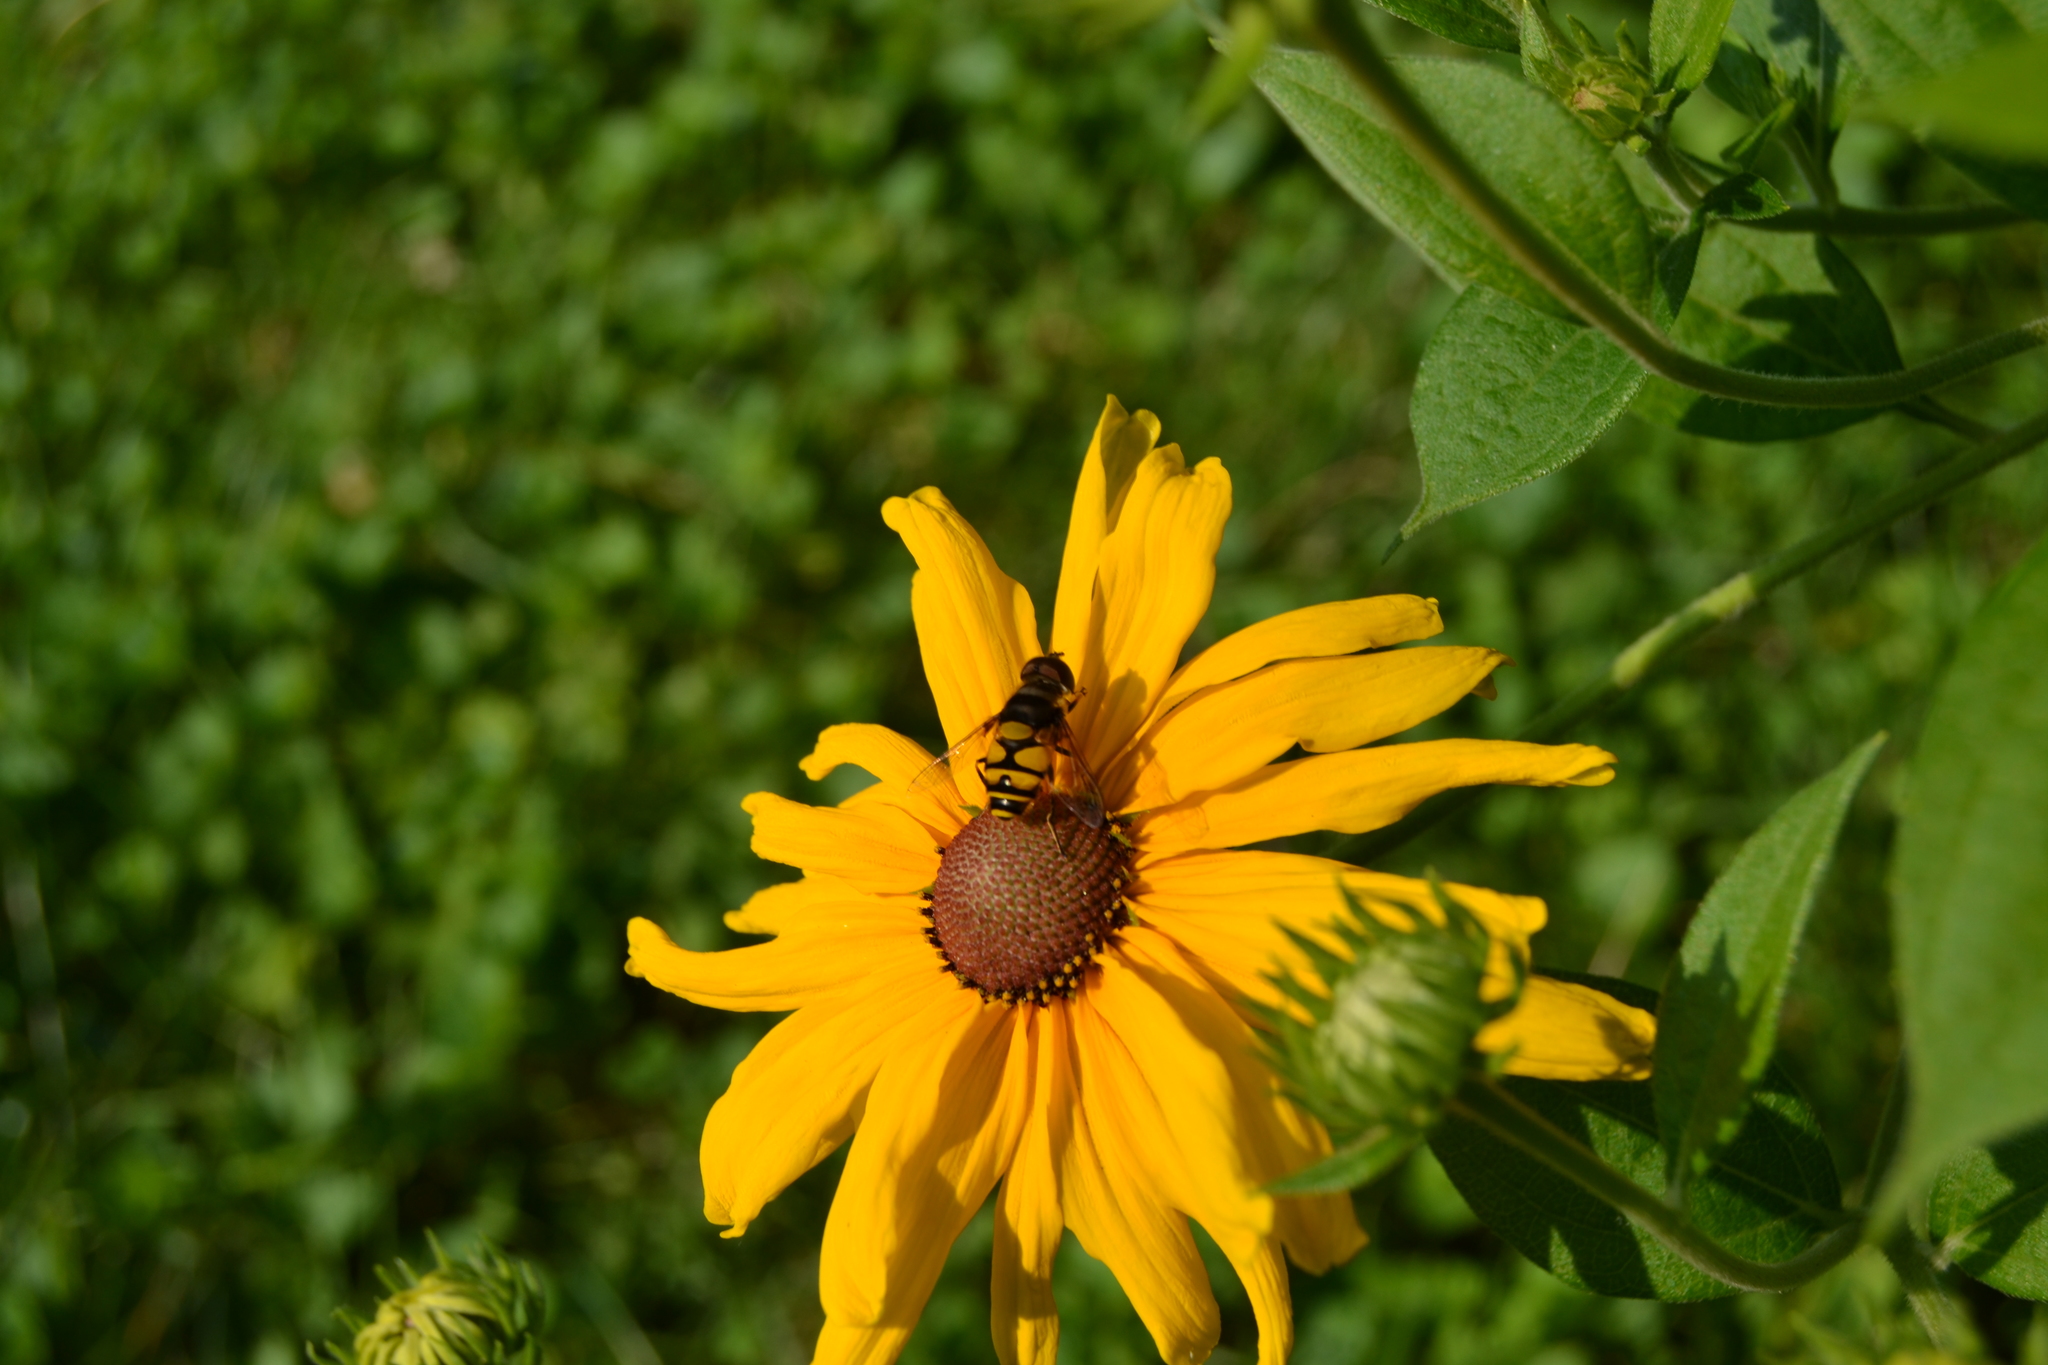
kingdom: Animalia
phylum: Arthropoda
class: Insecta
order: Diptera
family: Syrphidae
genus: Eristalis
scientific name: Eristalis transversa
